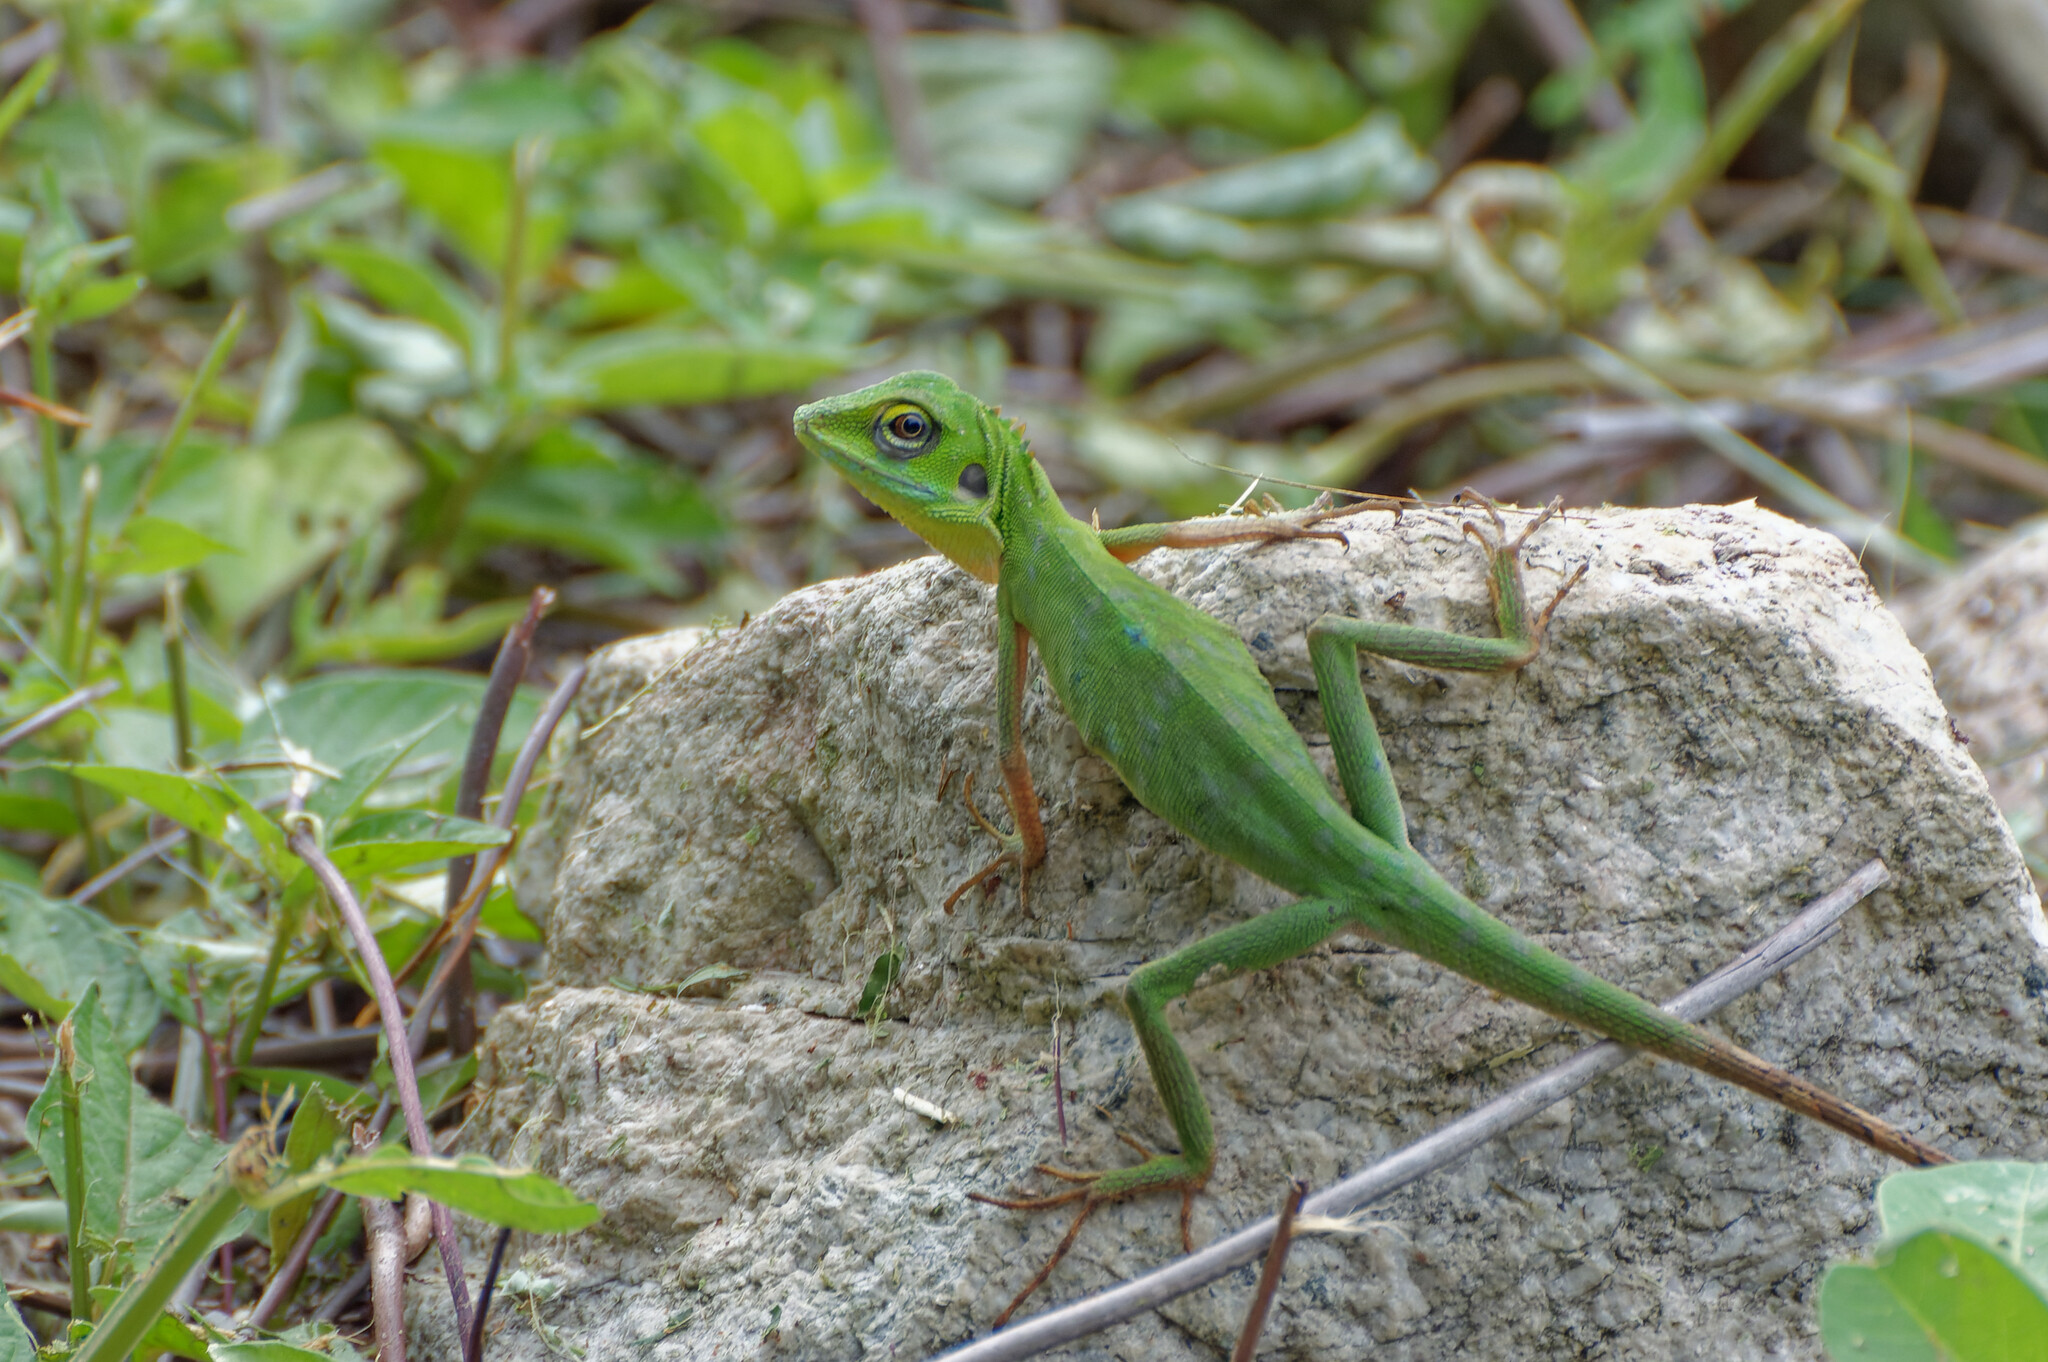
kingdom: Animalia
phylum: Chordata
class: Squamata
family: Agamidae
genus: Bronchocela
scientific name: Bronchocela cristatella
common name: Green crested lizard
